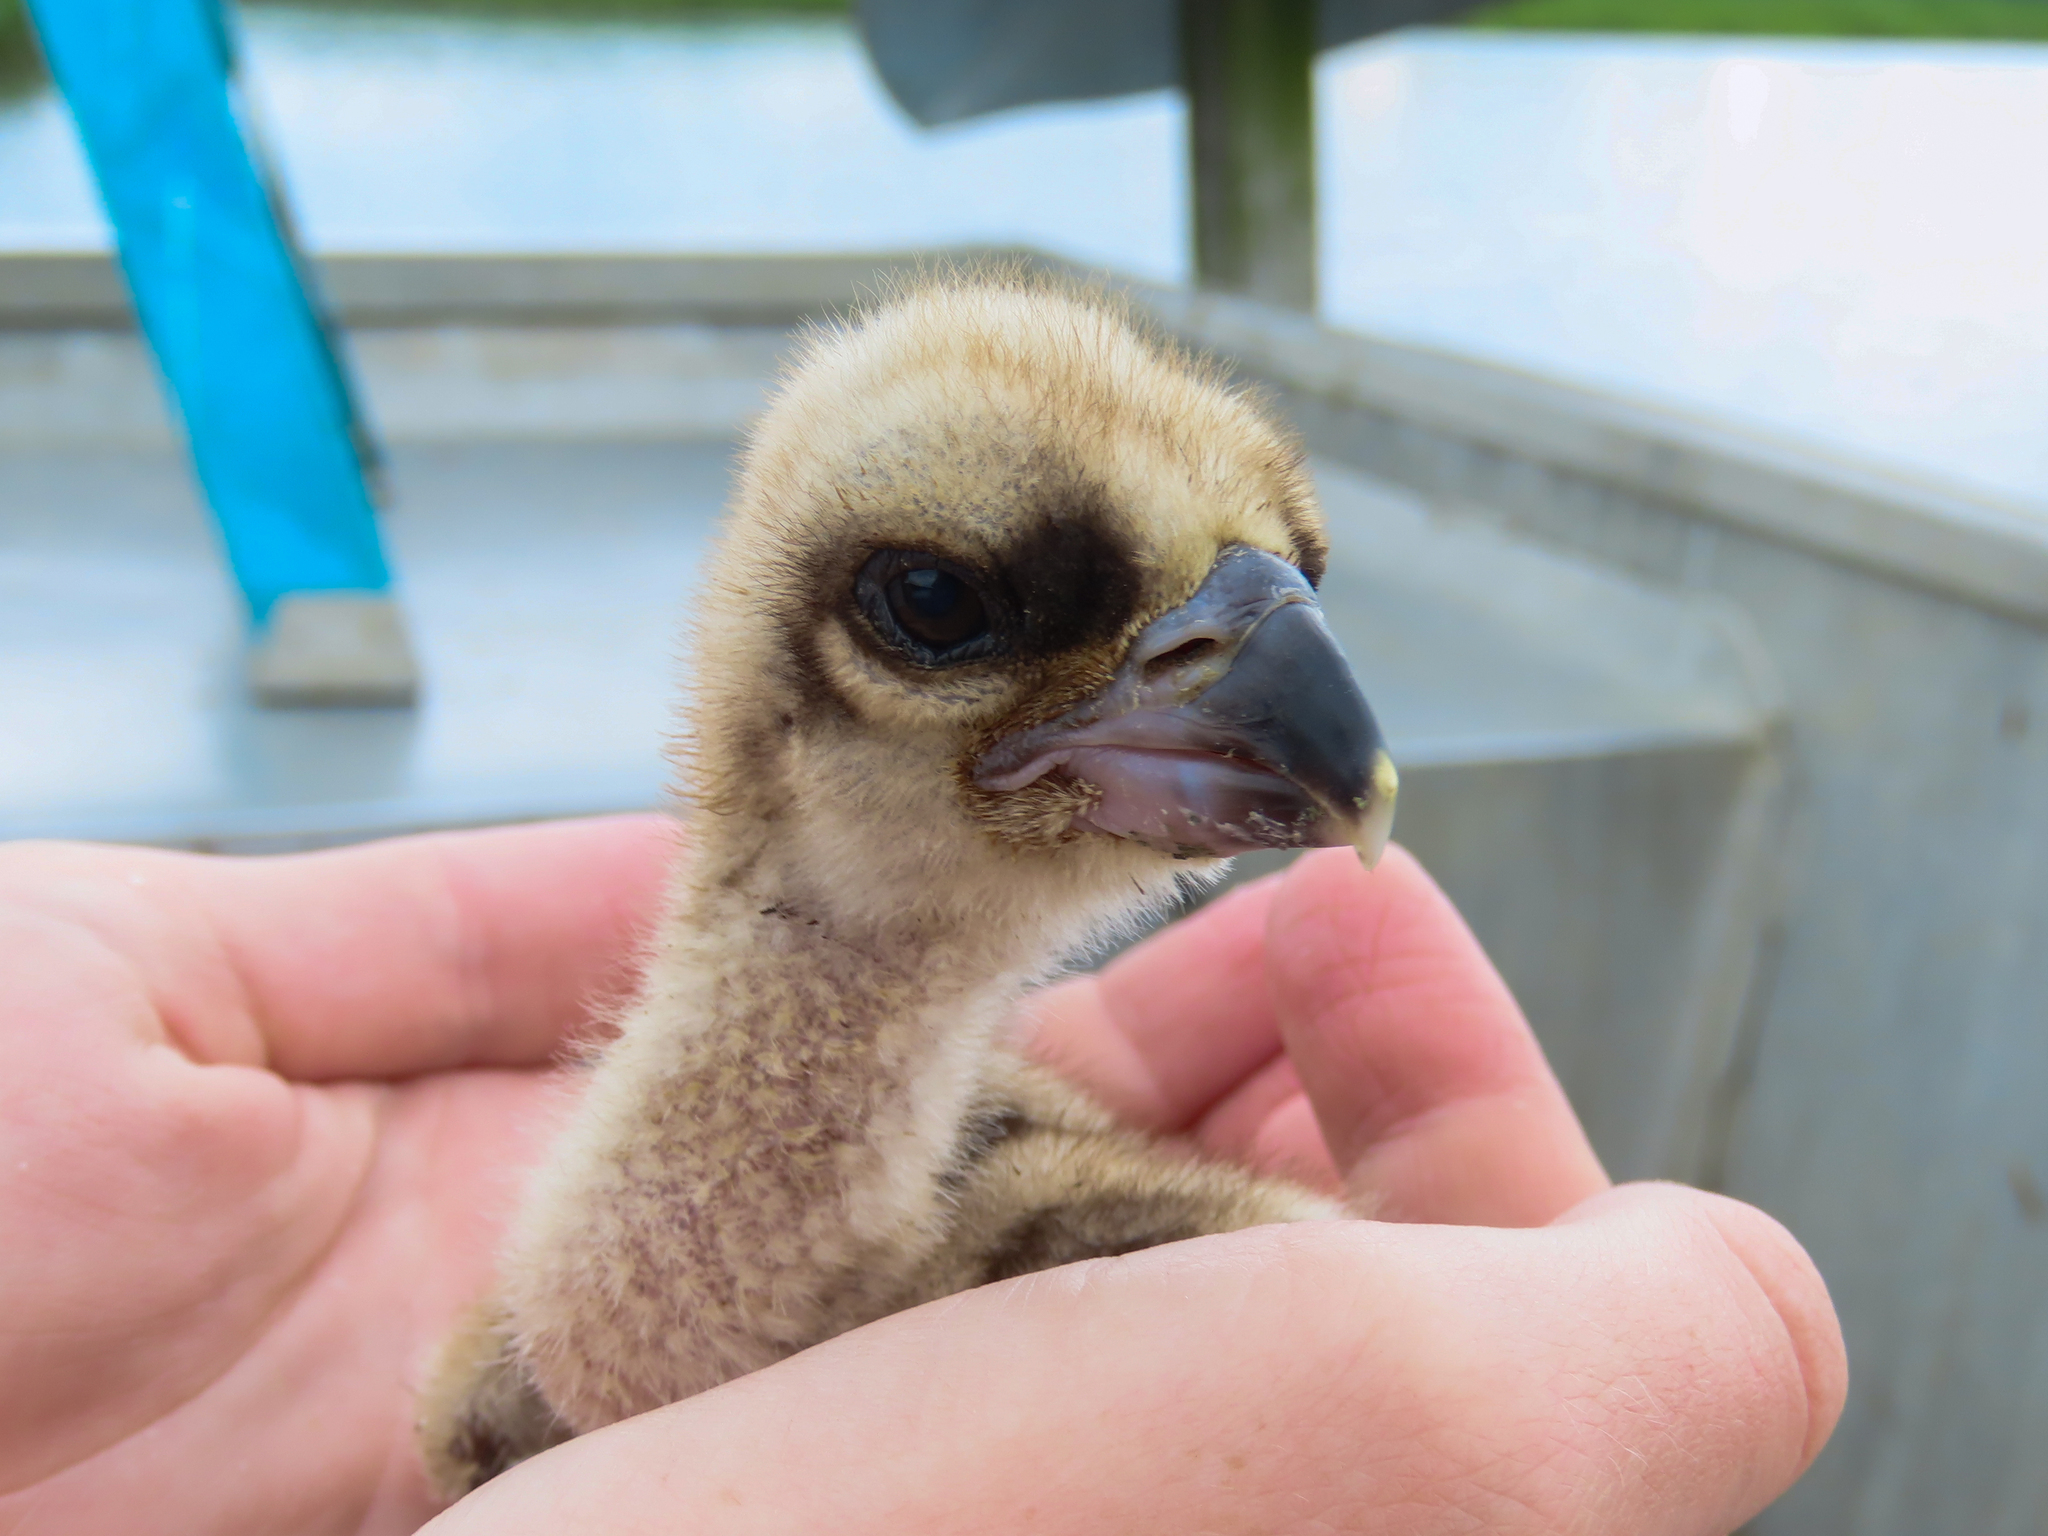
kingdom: Animalia
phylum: Chordata
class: Aves
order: Accipitriformes
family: Pandionidae
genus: Pandion
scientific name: Pandion haliaetus
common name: Osprey
